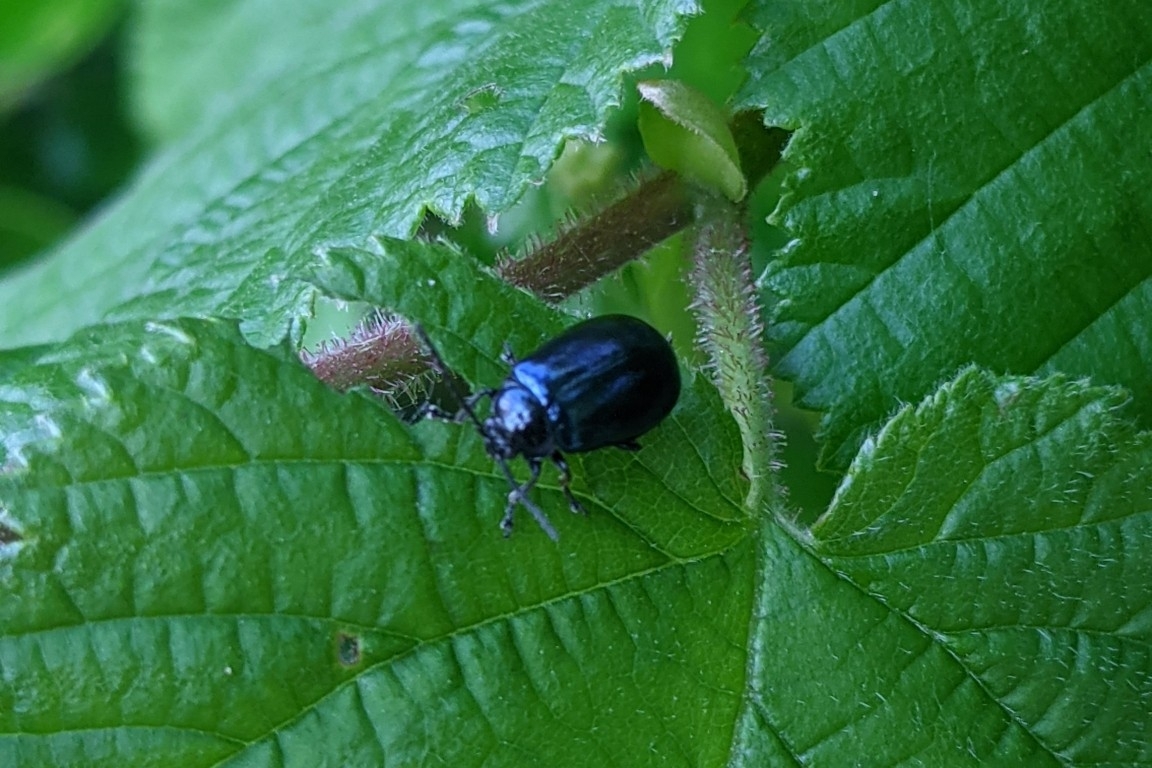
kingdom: Animalia
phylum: Arthropoda
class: Insecta
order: Coleoptera
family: Chrysomelidae
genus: Agelastica
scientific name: Agelastica alni
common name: Alder leaf beetle
